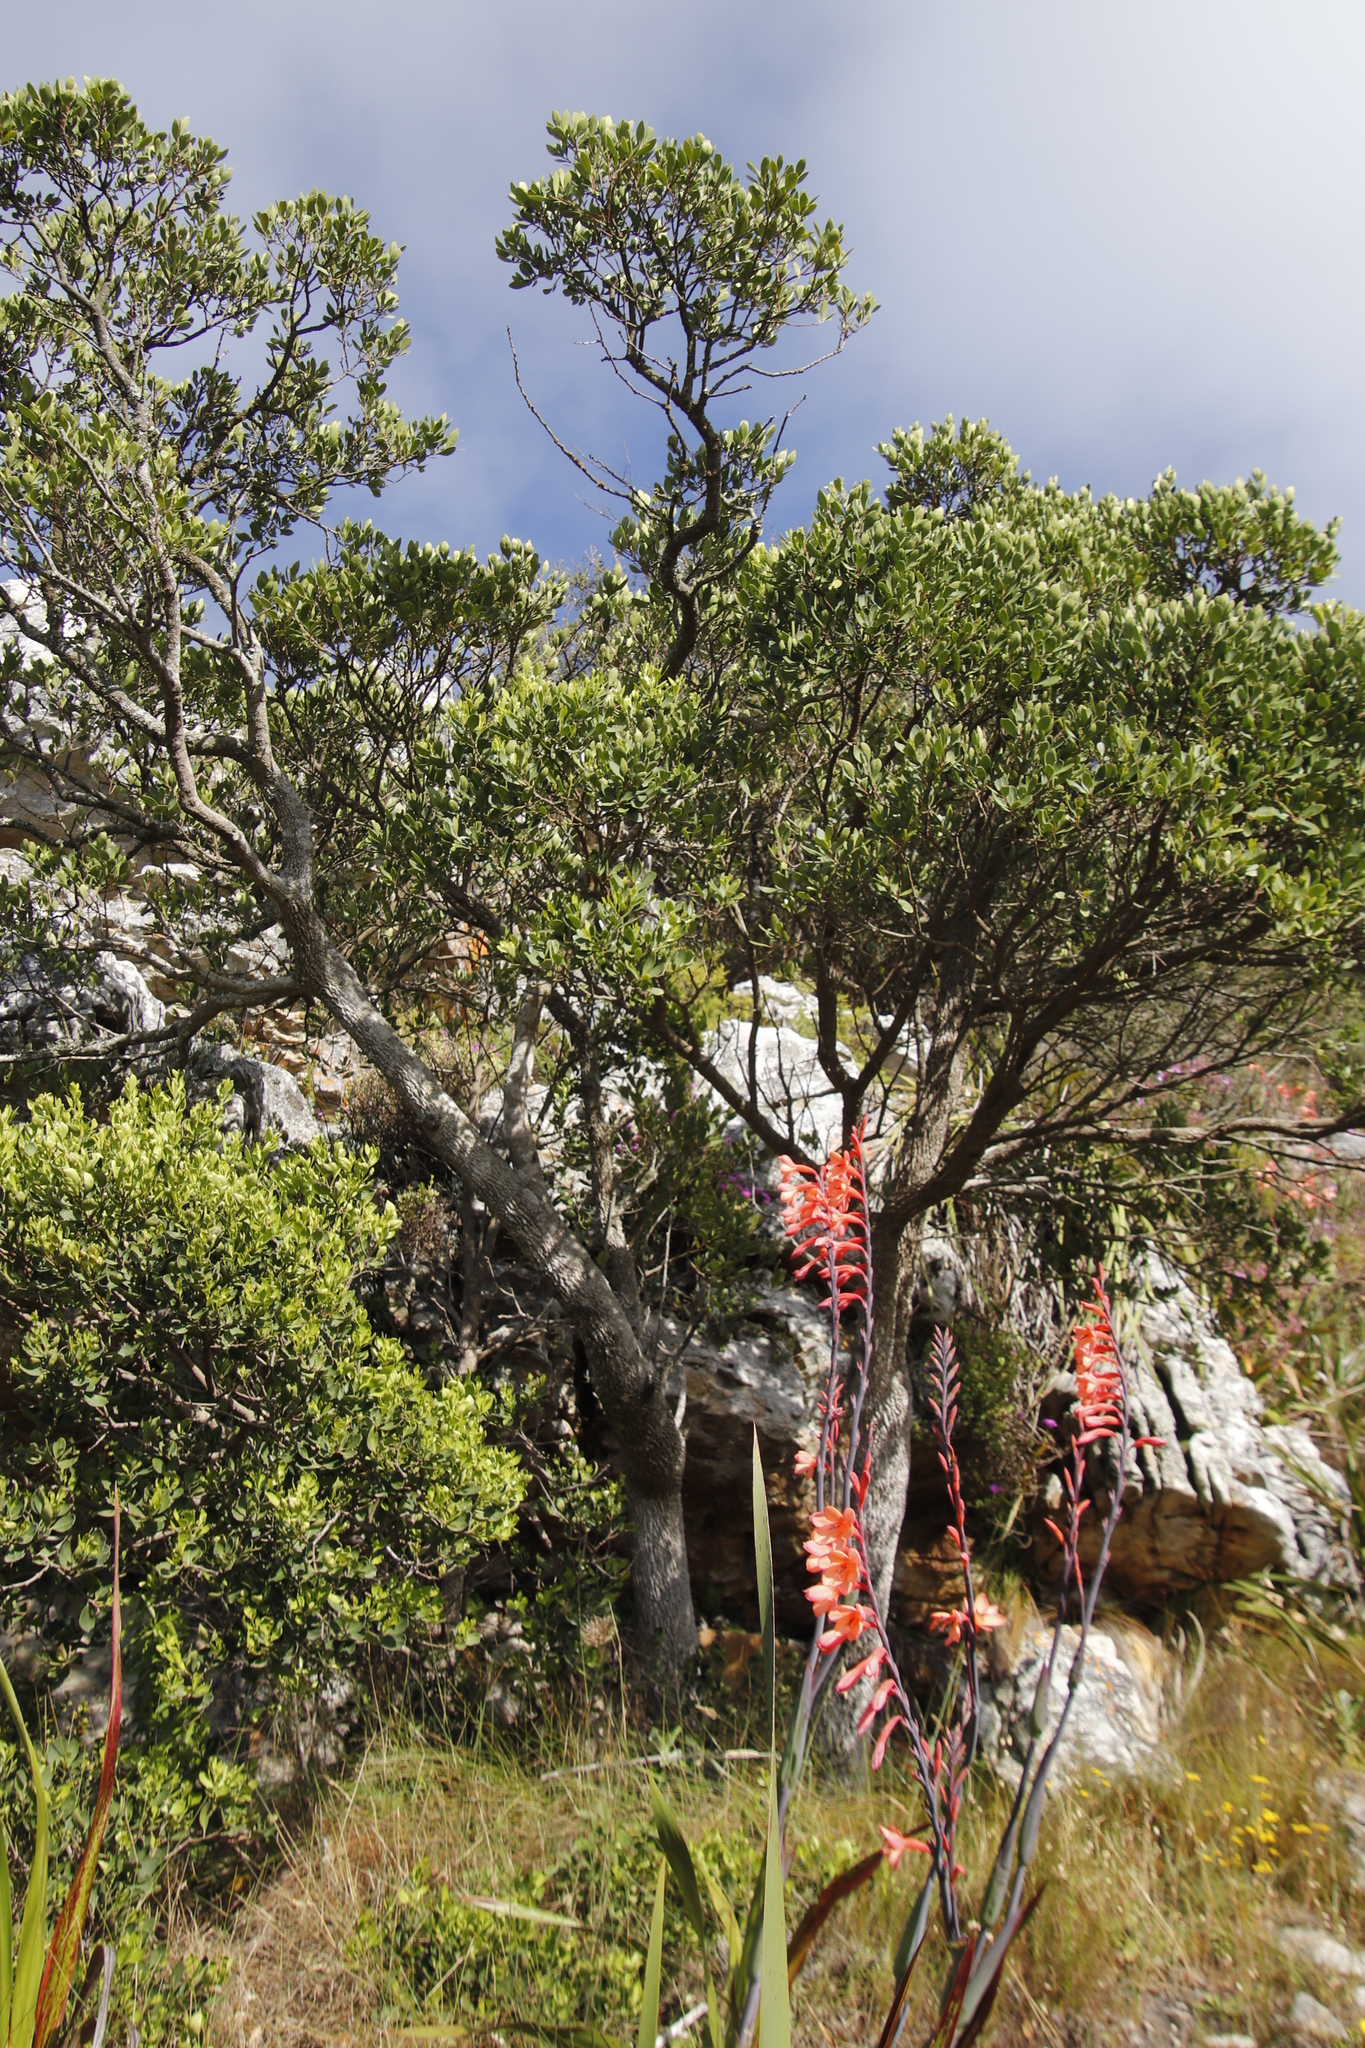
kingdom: Plantae
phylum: Tracheophyta
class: Magnoliopsida
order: Celastrales
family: Celastraceae
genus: Gymnosporia
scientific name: Gymnosporia laurina
